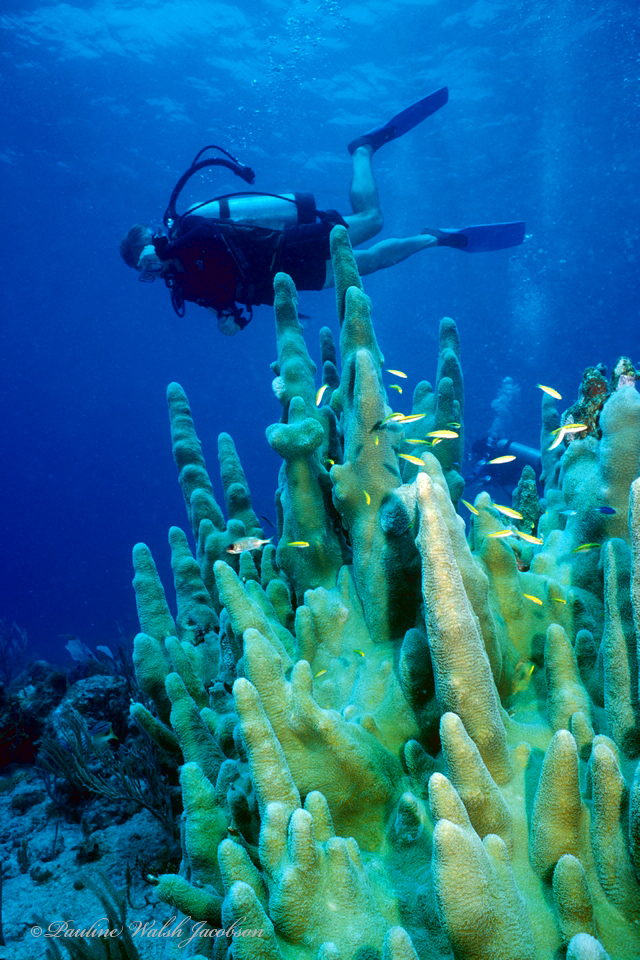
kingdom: Animalia
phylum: Cnidaria
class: Anthozoa
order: Scleractinia
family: Meandrinidae
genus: Dendrogyra
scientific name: Dendrogyra cylindrus
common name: Pillar coral
